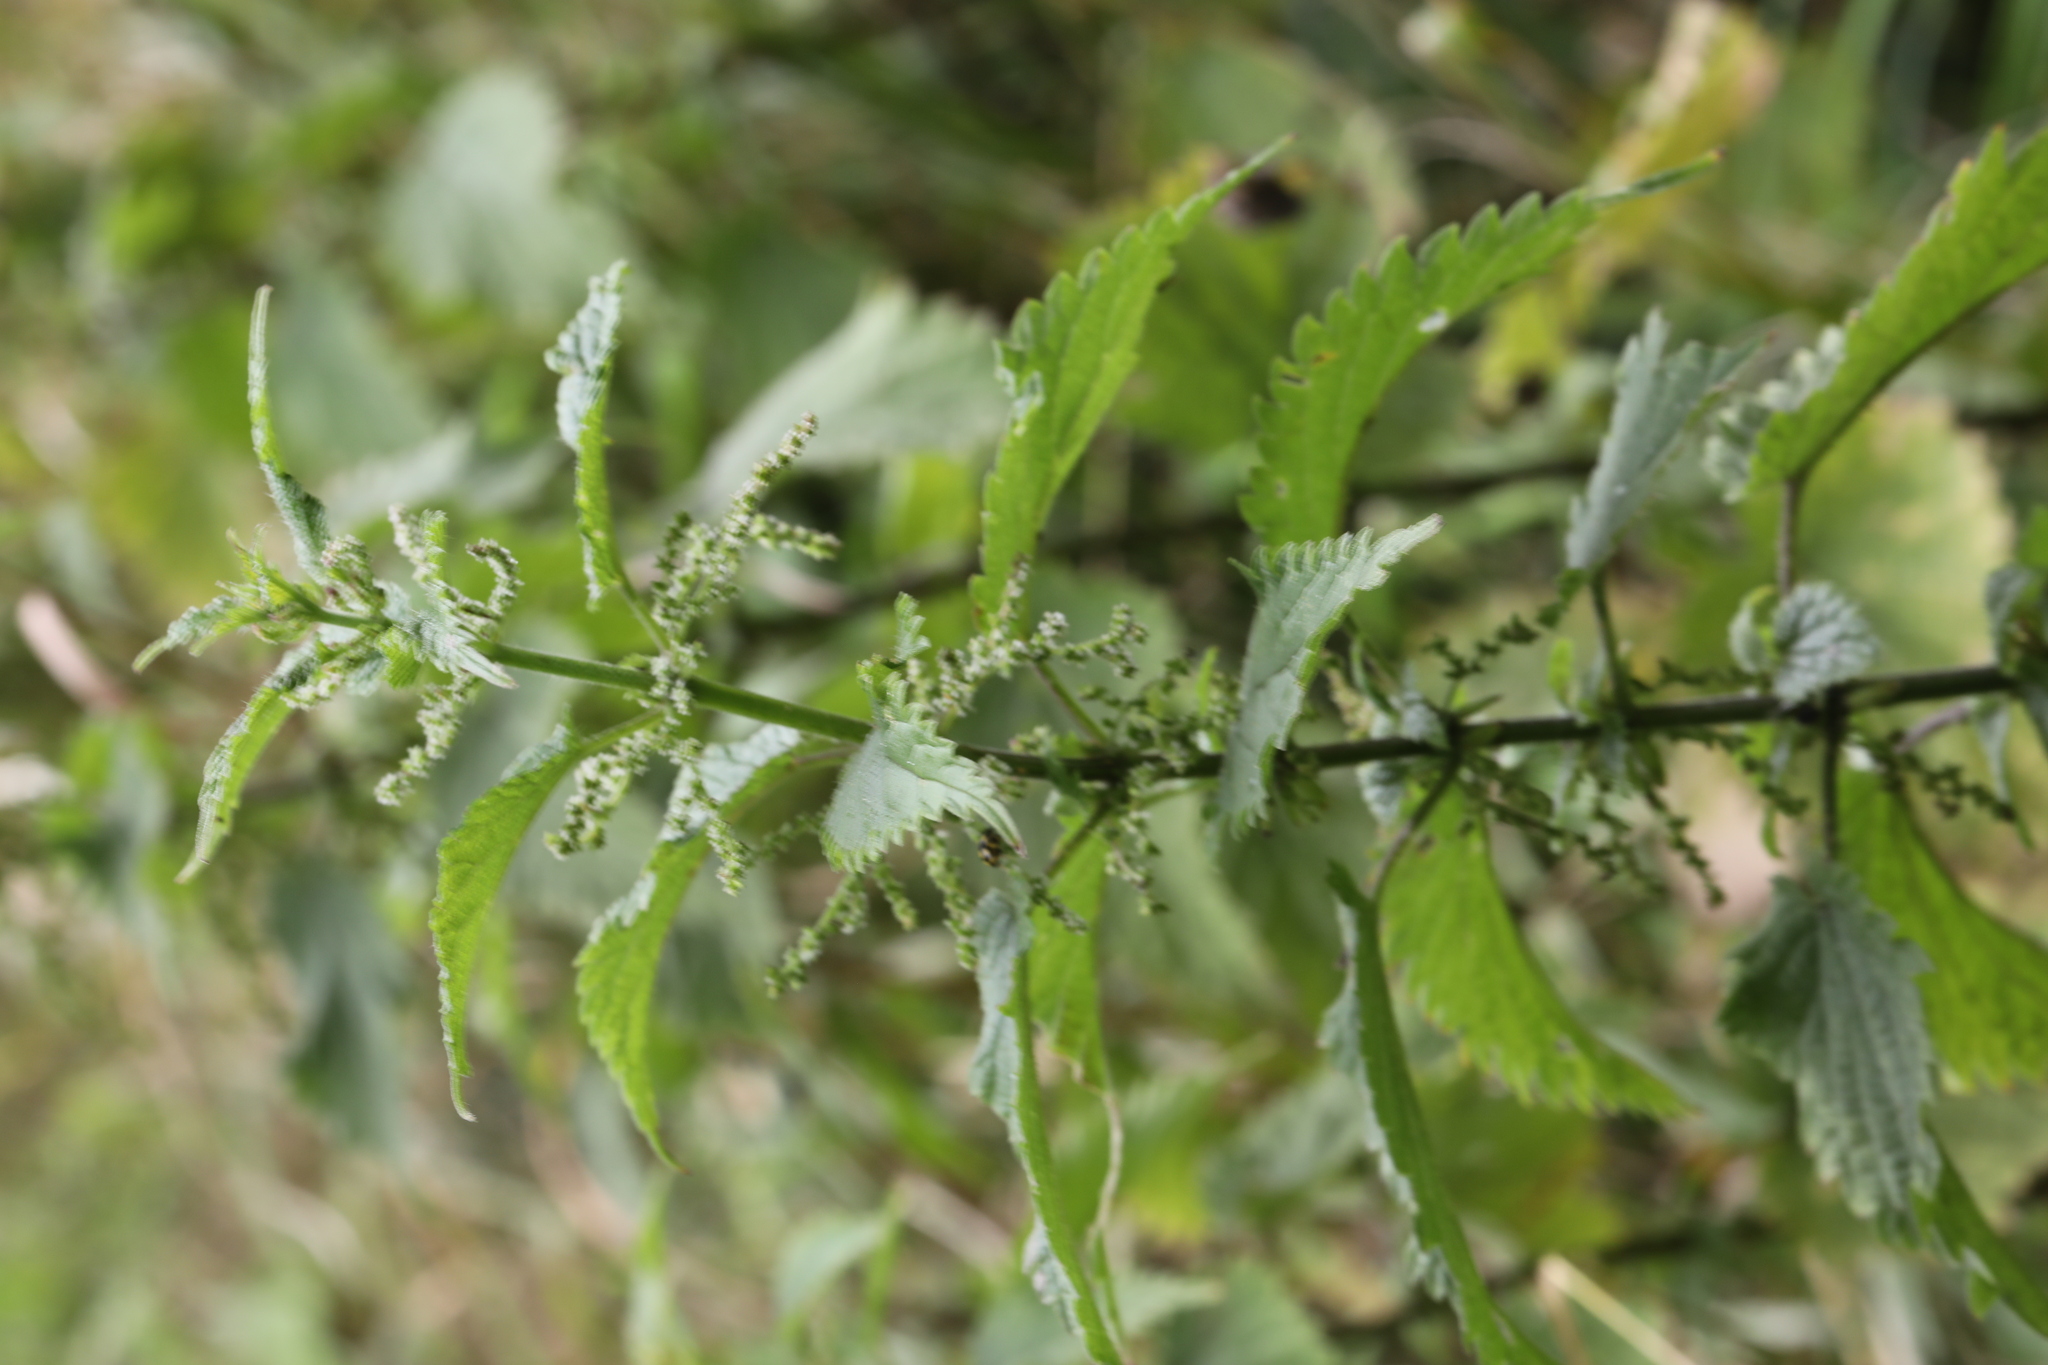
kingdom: Plantae
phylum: Tracheophyta
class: Magnoliopsida
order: Rosales
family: Urticaceae
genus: Urtica
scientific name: Urtica dioica
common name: Common nettle
